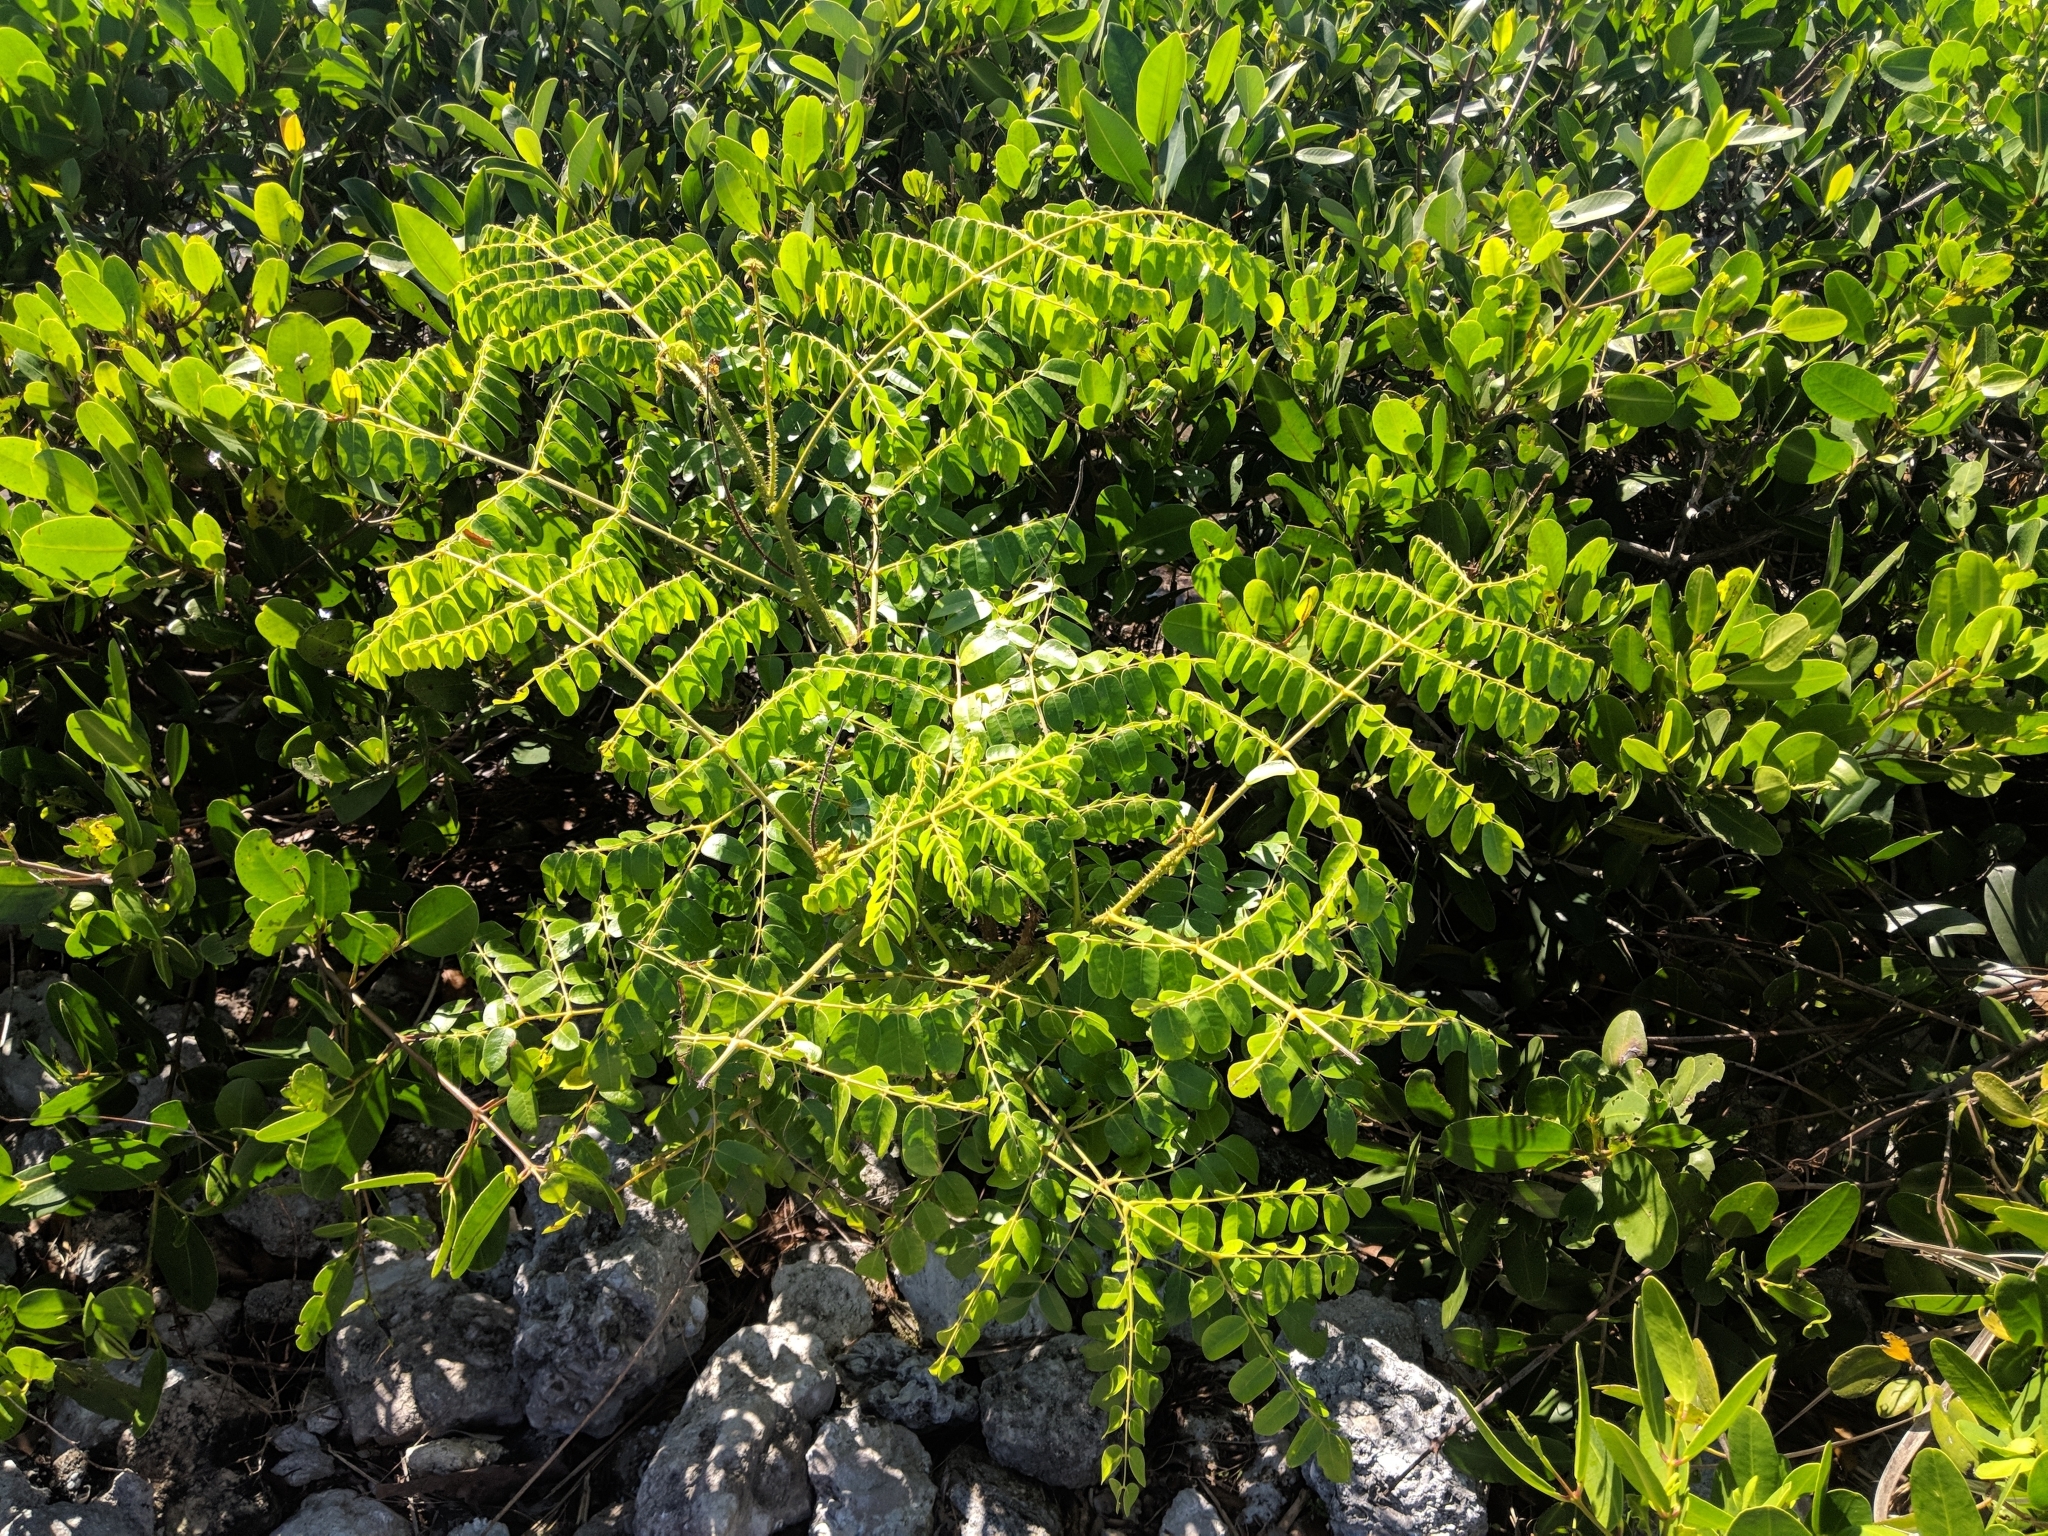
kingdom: Plantae
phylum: Tracheophyta
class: Magnoliopsida
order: Fabales
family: Fabaceae
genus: Guilandina
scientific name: Guilandina bonduc
